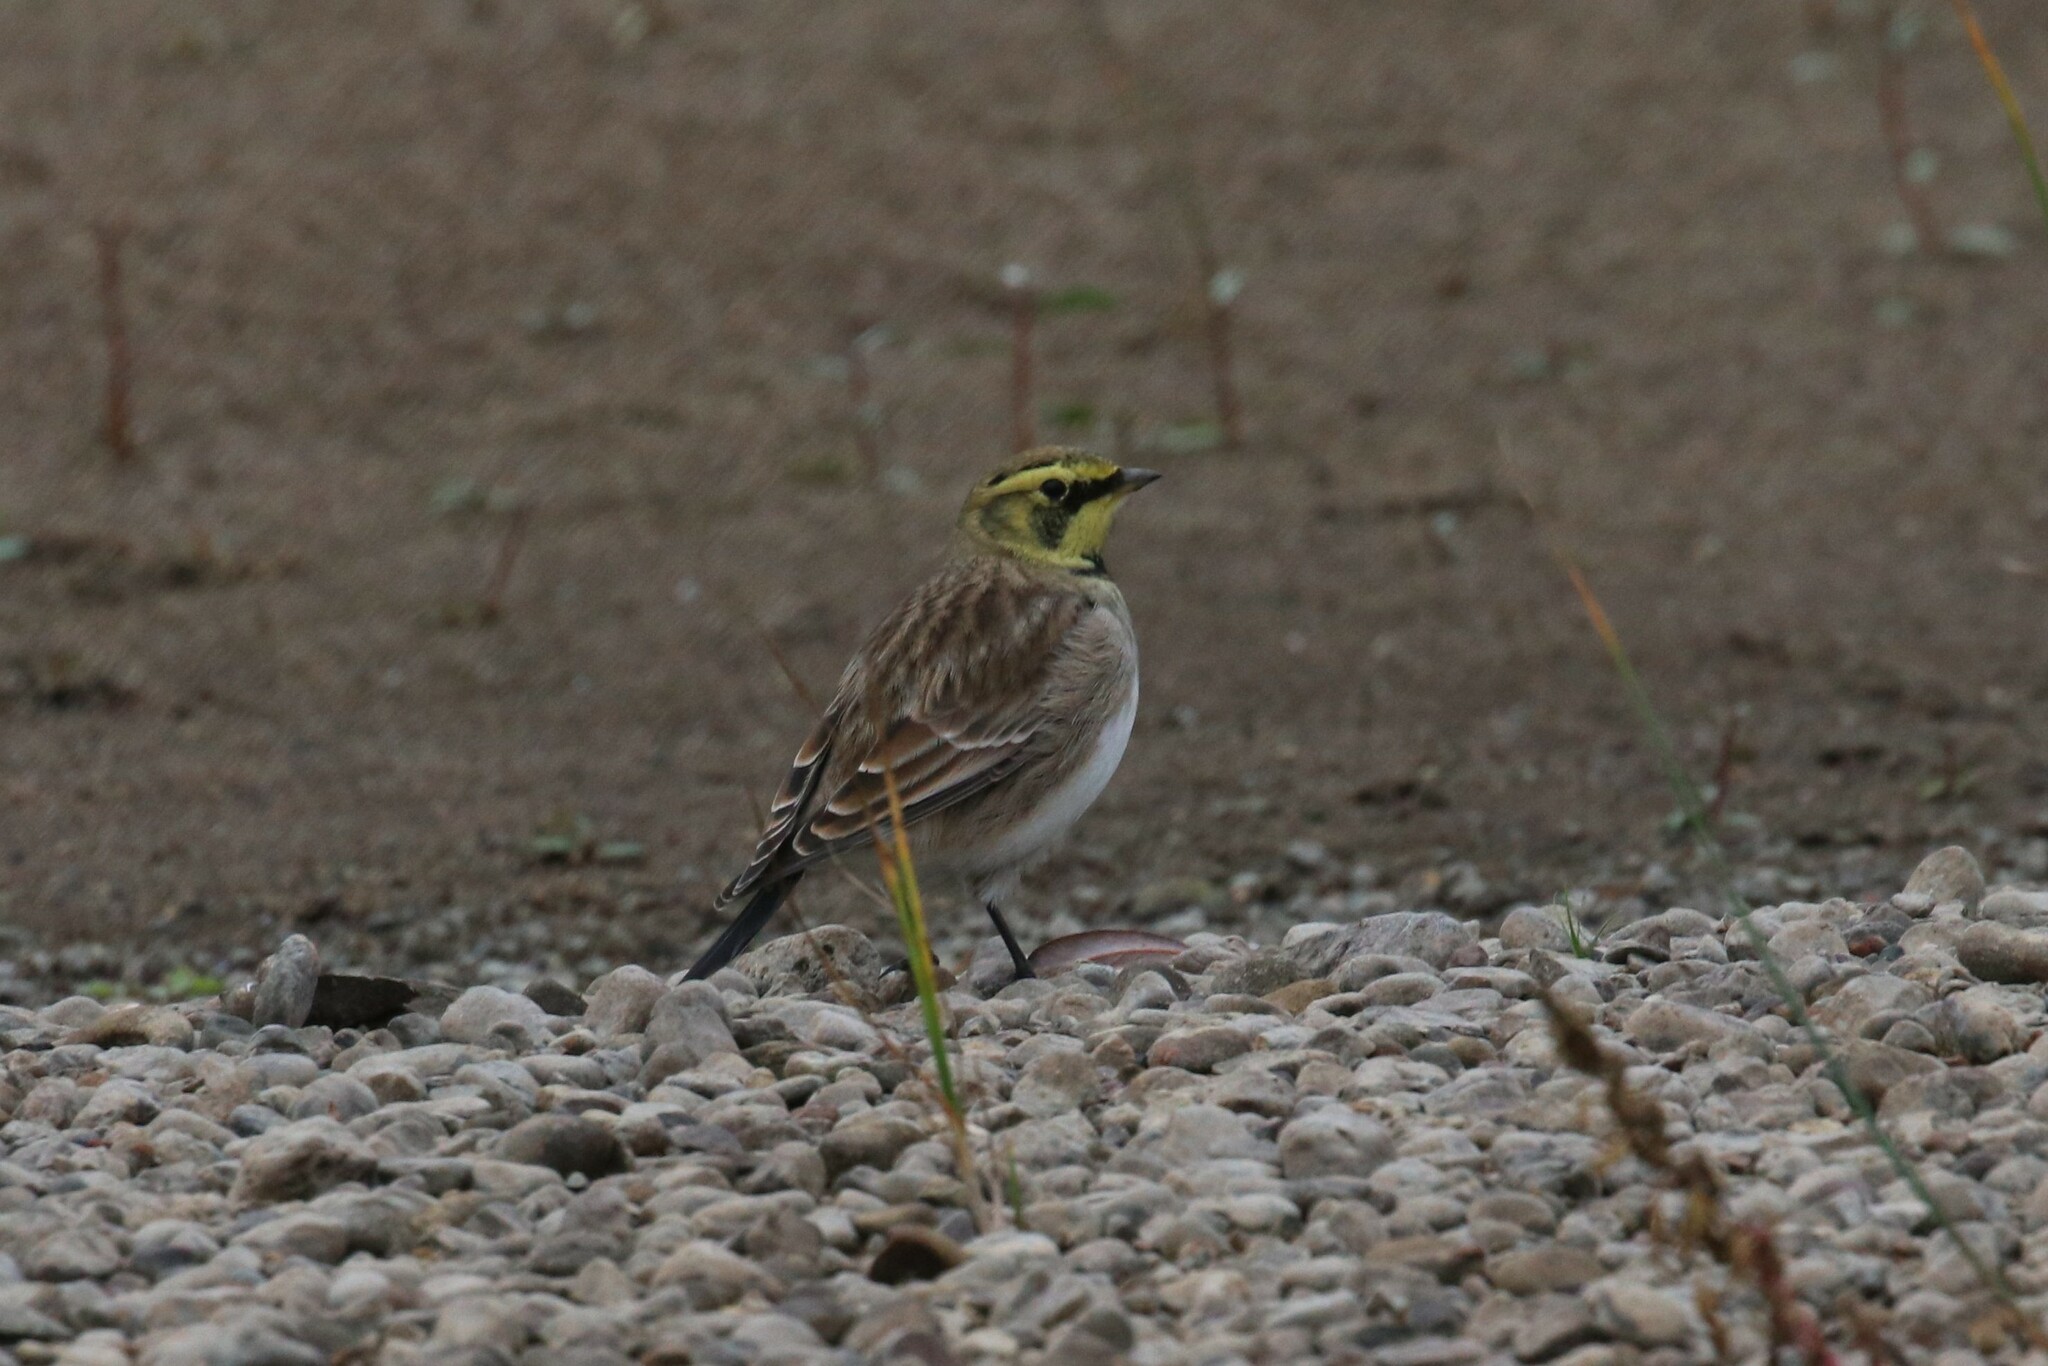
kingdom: Animalia
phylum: Chordata
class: Aves
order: Passeriformes
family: Alaudidae
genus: Eremophila
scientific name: Eremophila alpestris
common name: Horned lark
